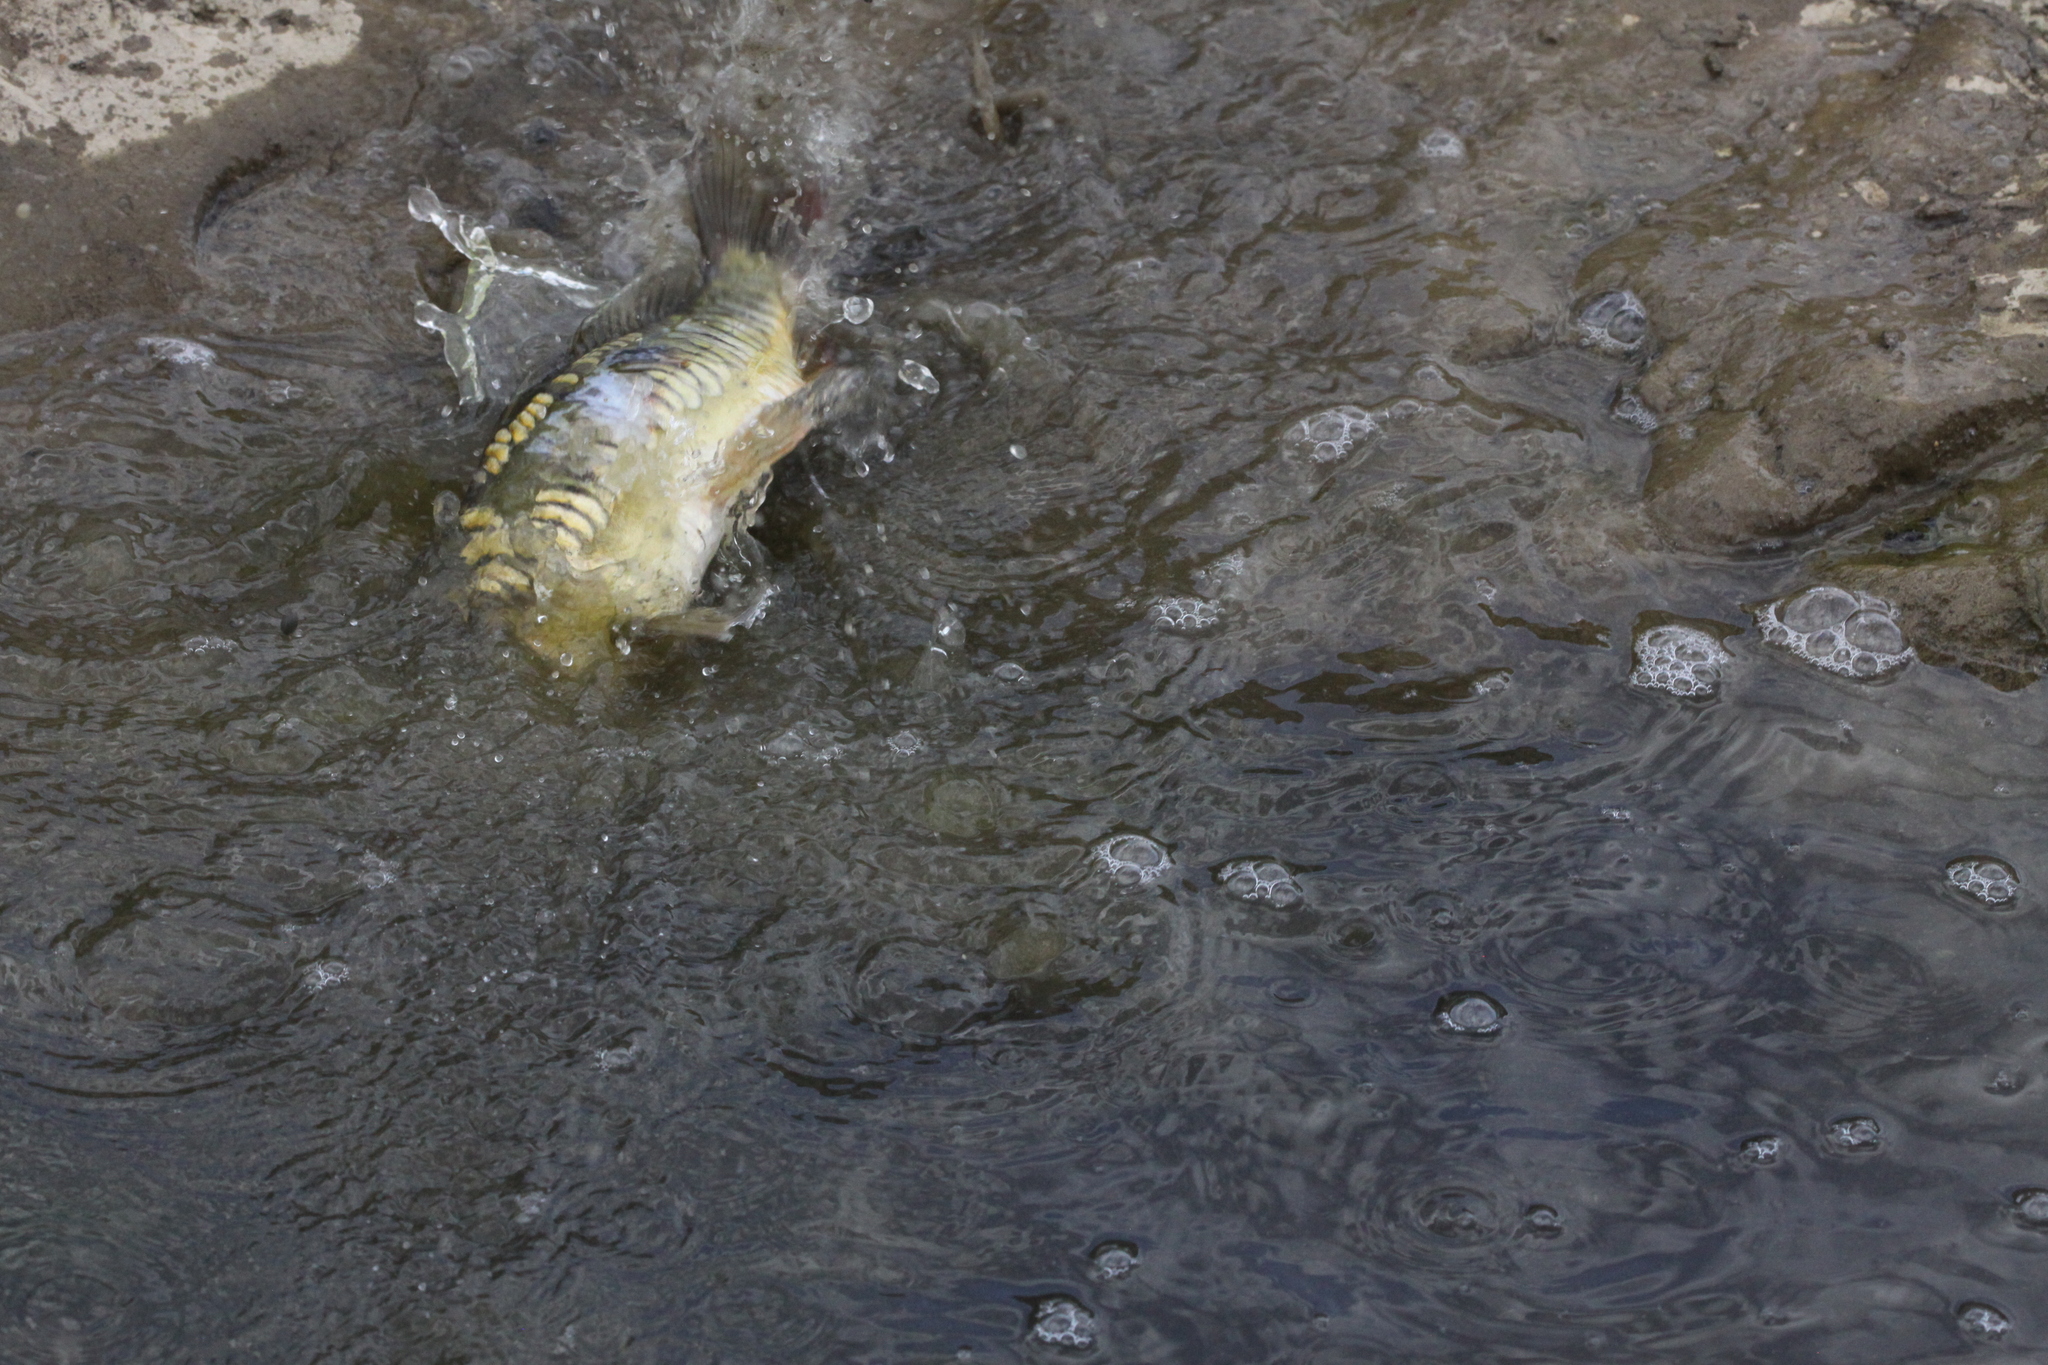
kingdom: Animalia
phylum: Chordata
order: Cypriniformes
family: Cyprinidae
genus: Cyprinus
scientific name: Cyprinus carpio
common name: Common carp
